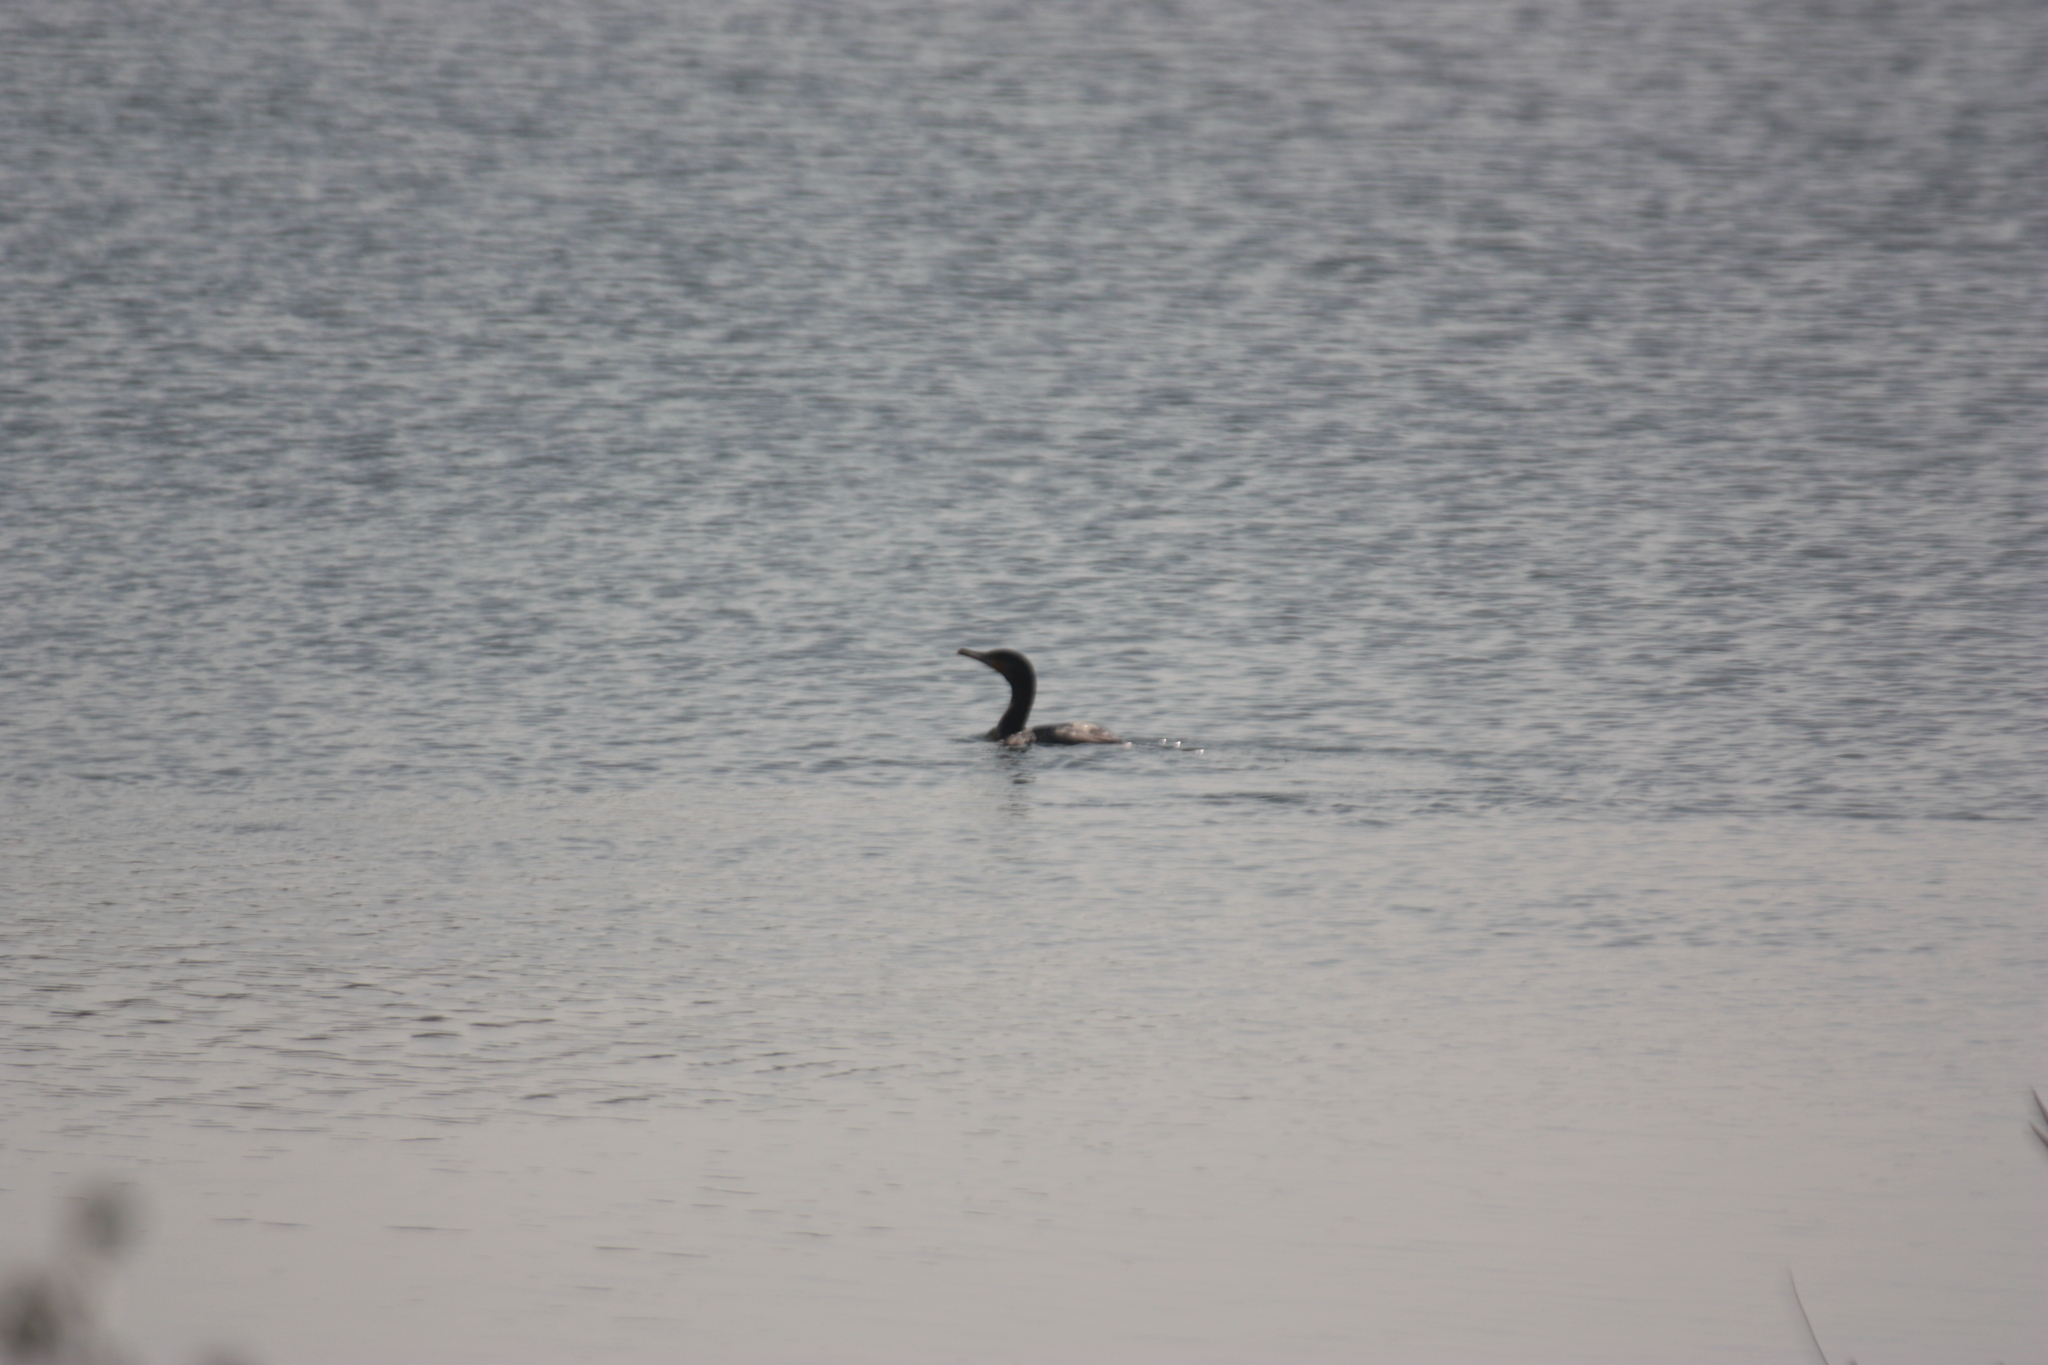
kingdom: Animalia
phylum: Chordata
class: Aves
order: Suliformes
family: Phalacrocoracidae
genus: Phalacrocorax
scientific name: Phalacrocorax carbo
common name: Great cormorant
